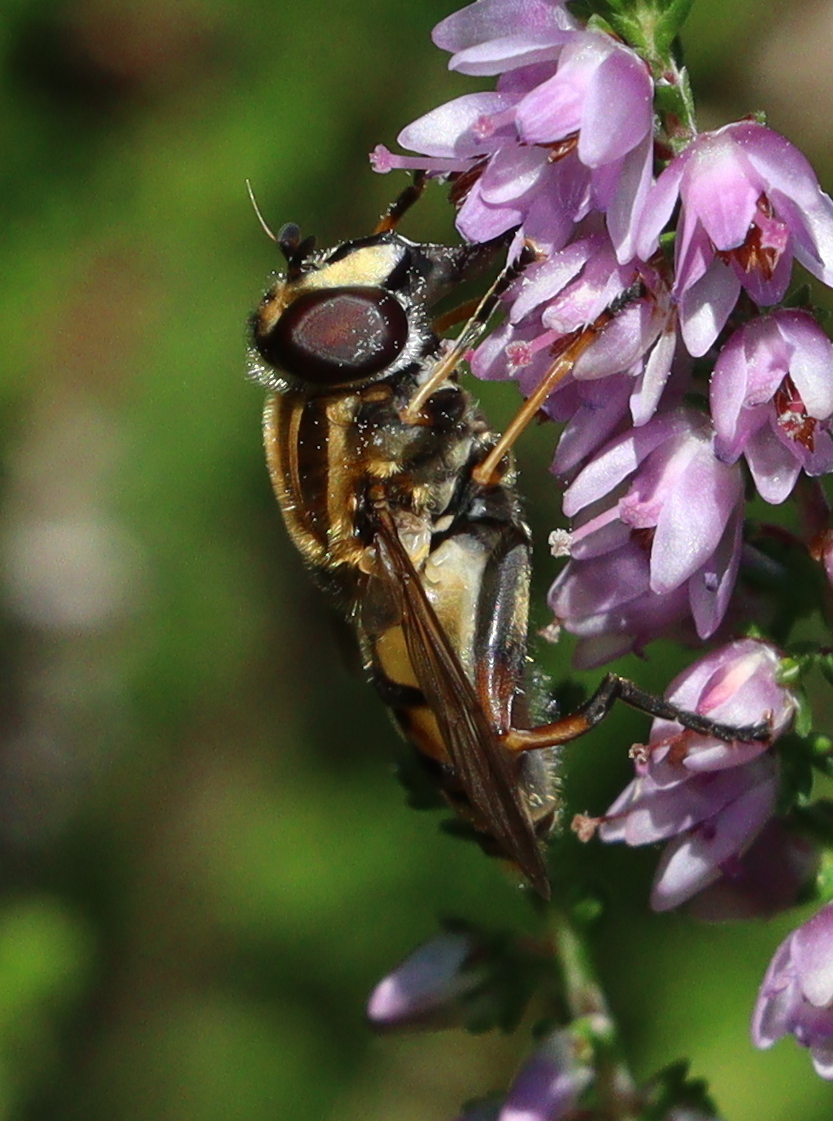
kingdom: Animalia
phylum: Arthropoda
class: Insecta
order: Diptera
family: Syrphidae
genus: Helophilus
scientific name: Helophilus pendulus
